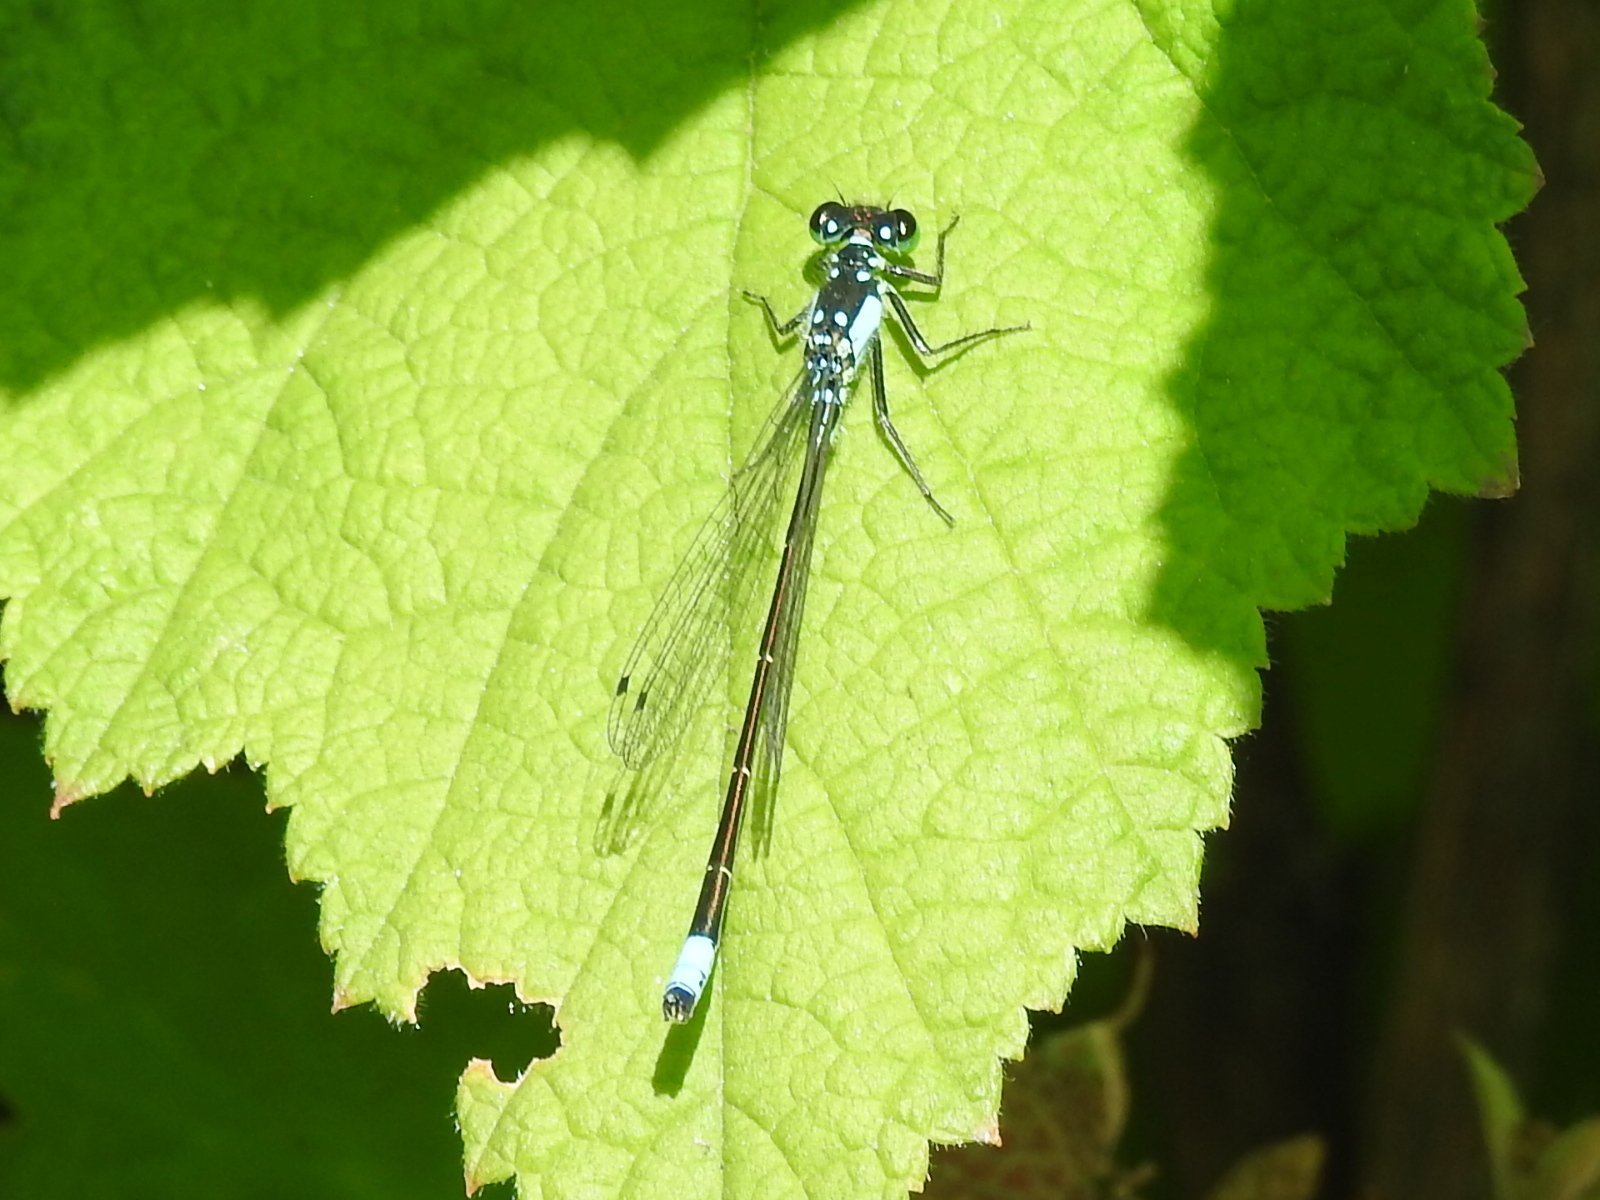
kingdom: Animalia
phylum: Arthropoda
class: Insecta
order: Odonata
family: Coenagrionidae
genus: Ischnura
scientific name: Ischnura cervula
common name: Pacific forktail
